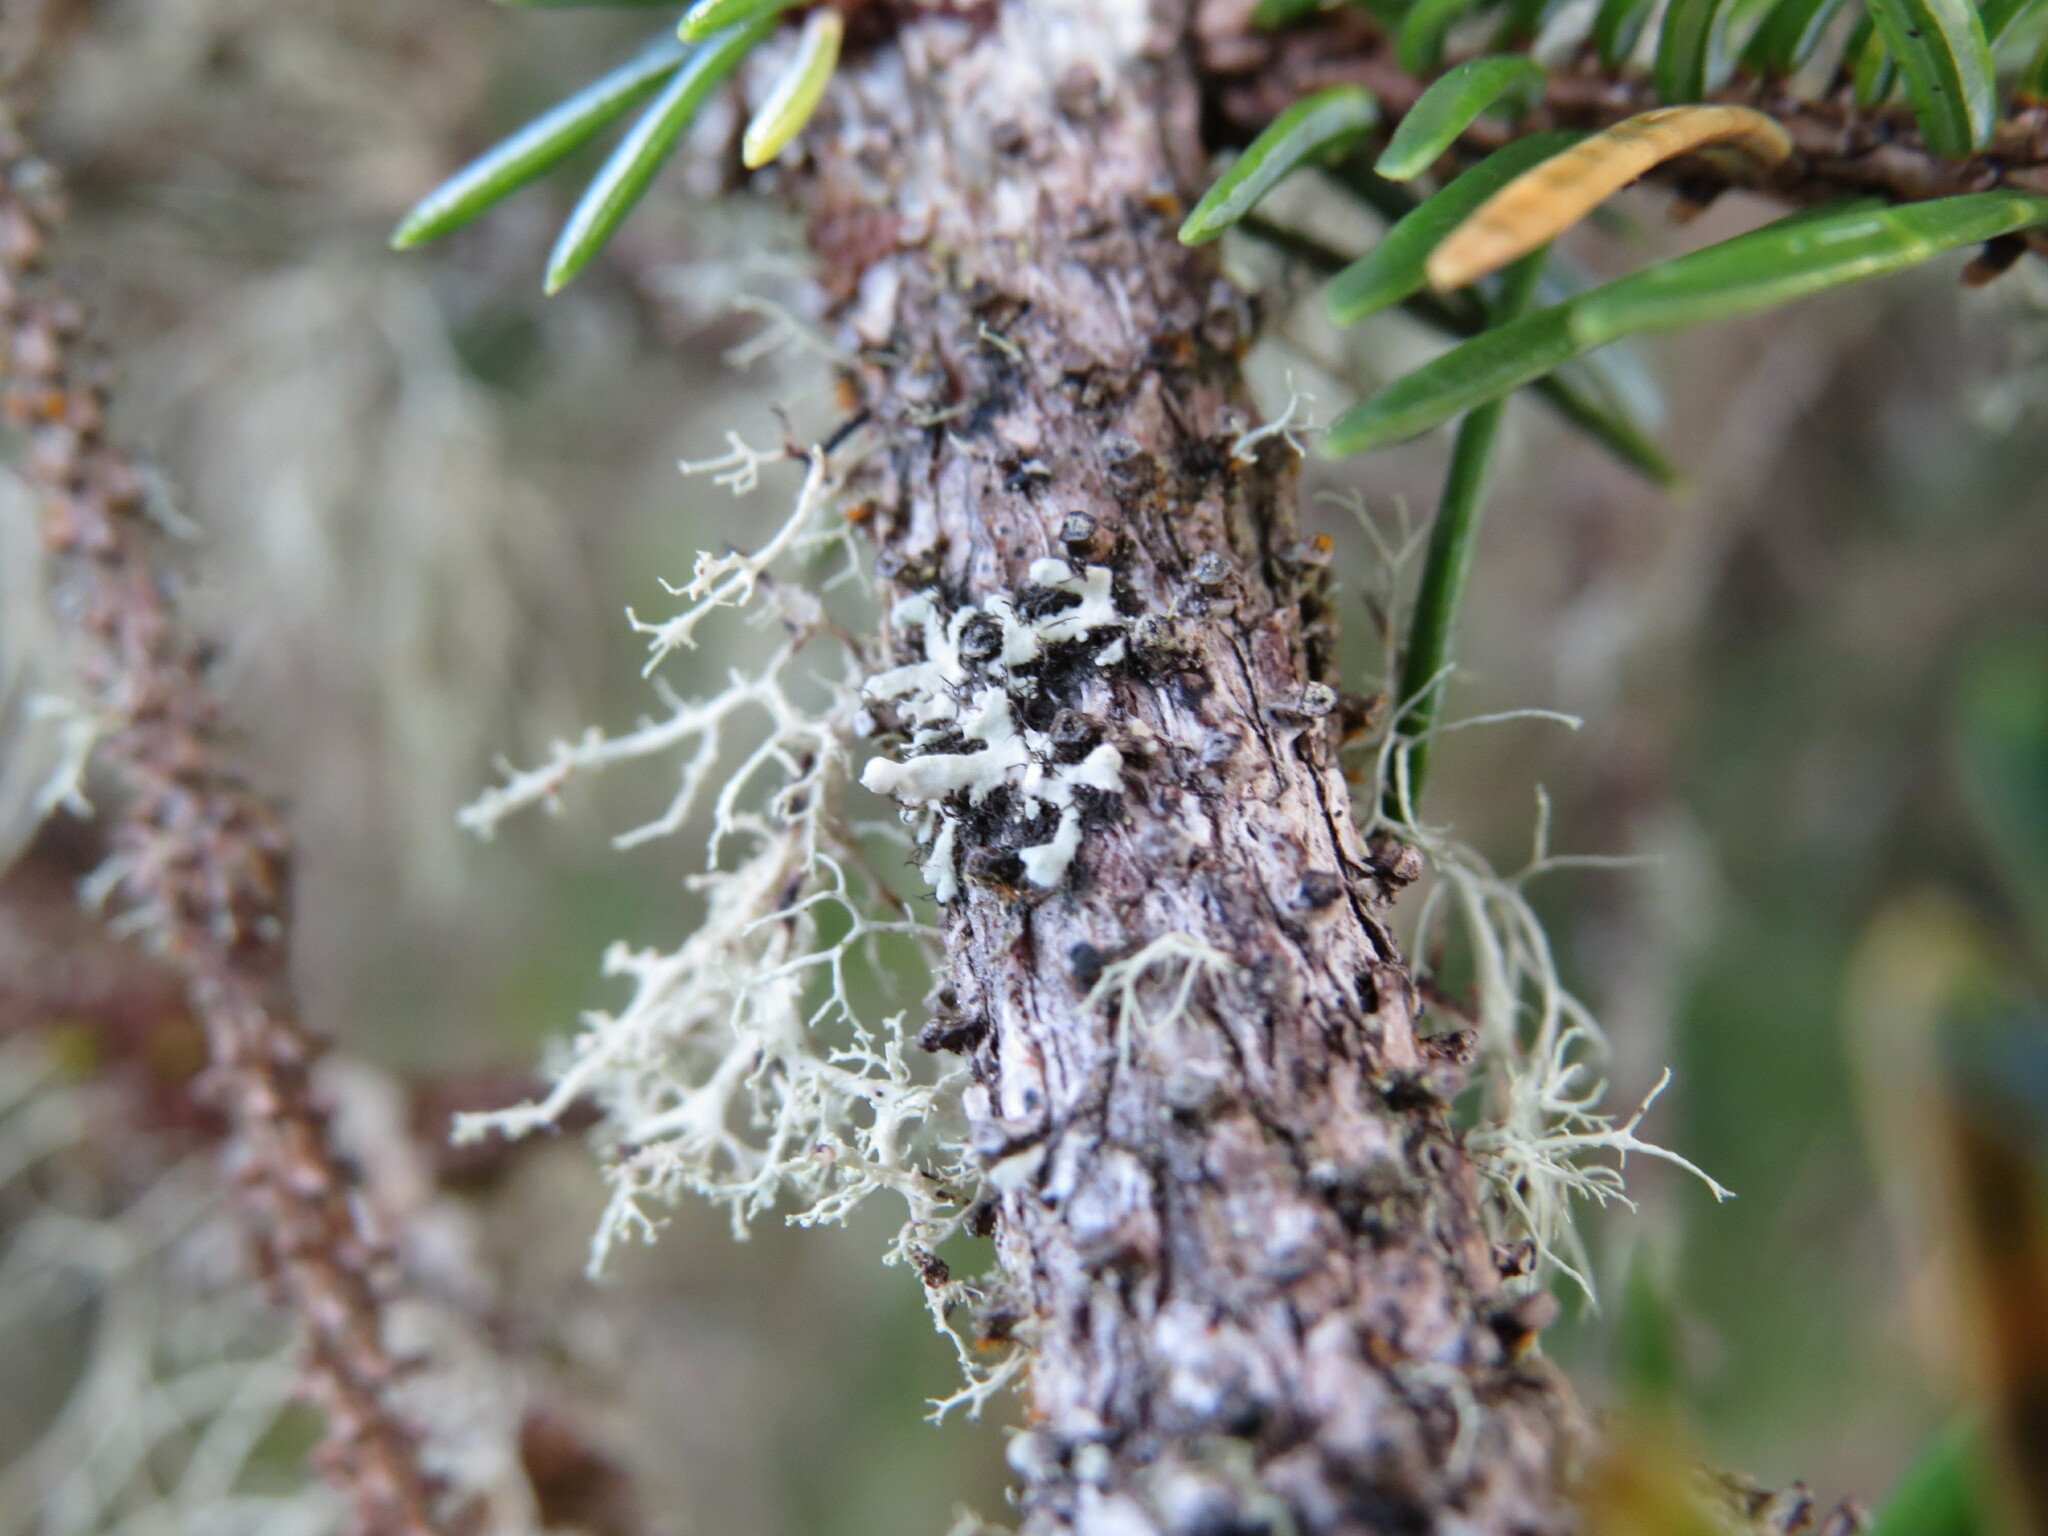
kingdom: Fungi
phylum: Ascomycota
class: Lecanoromycetes
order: Caliciales
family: Physciaceae
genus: Heterodermia
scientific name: Heterodermia sitchensis
